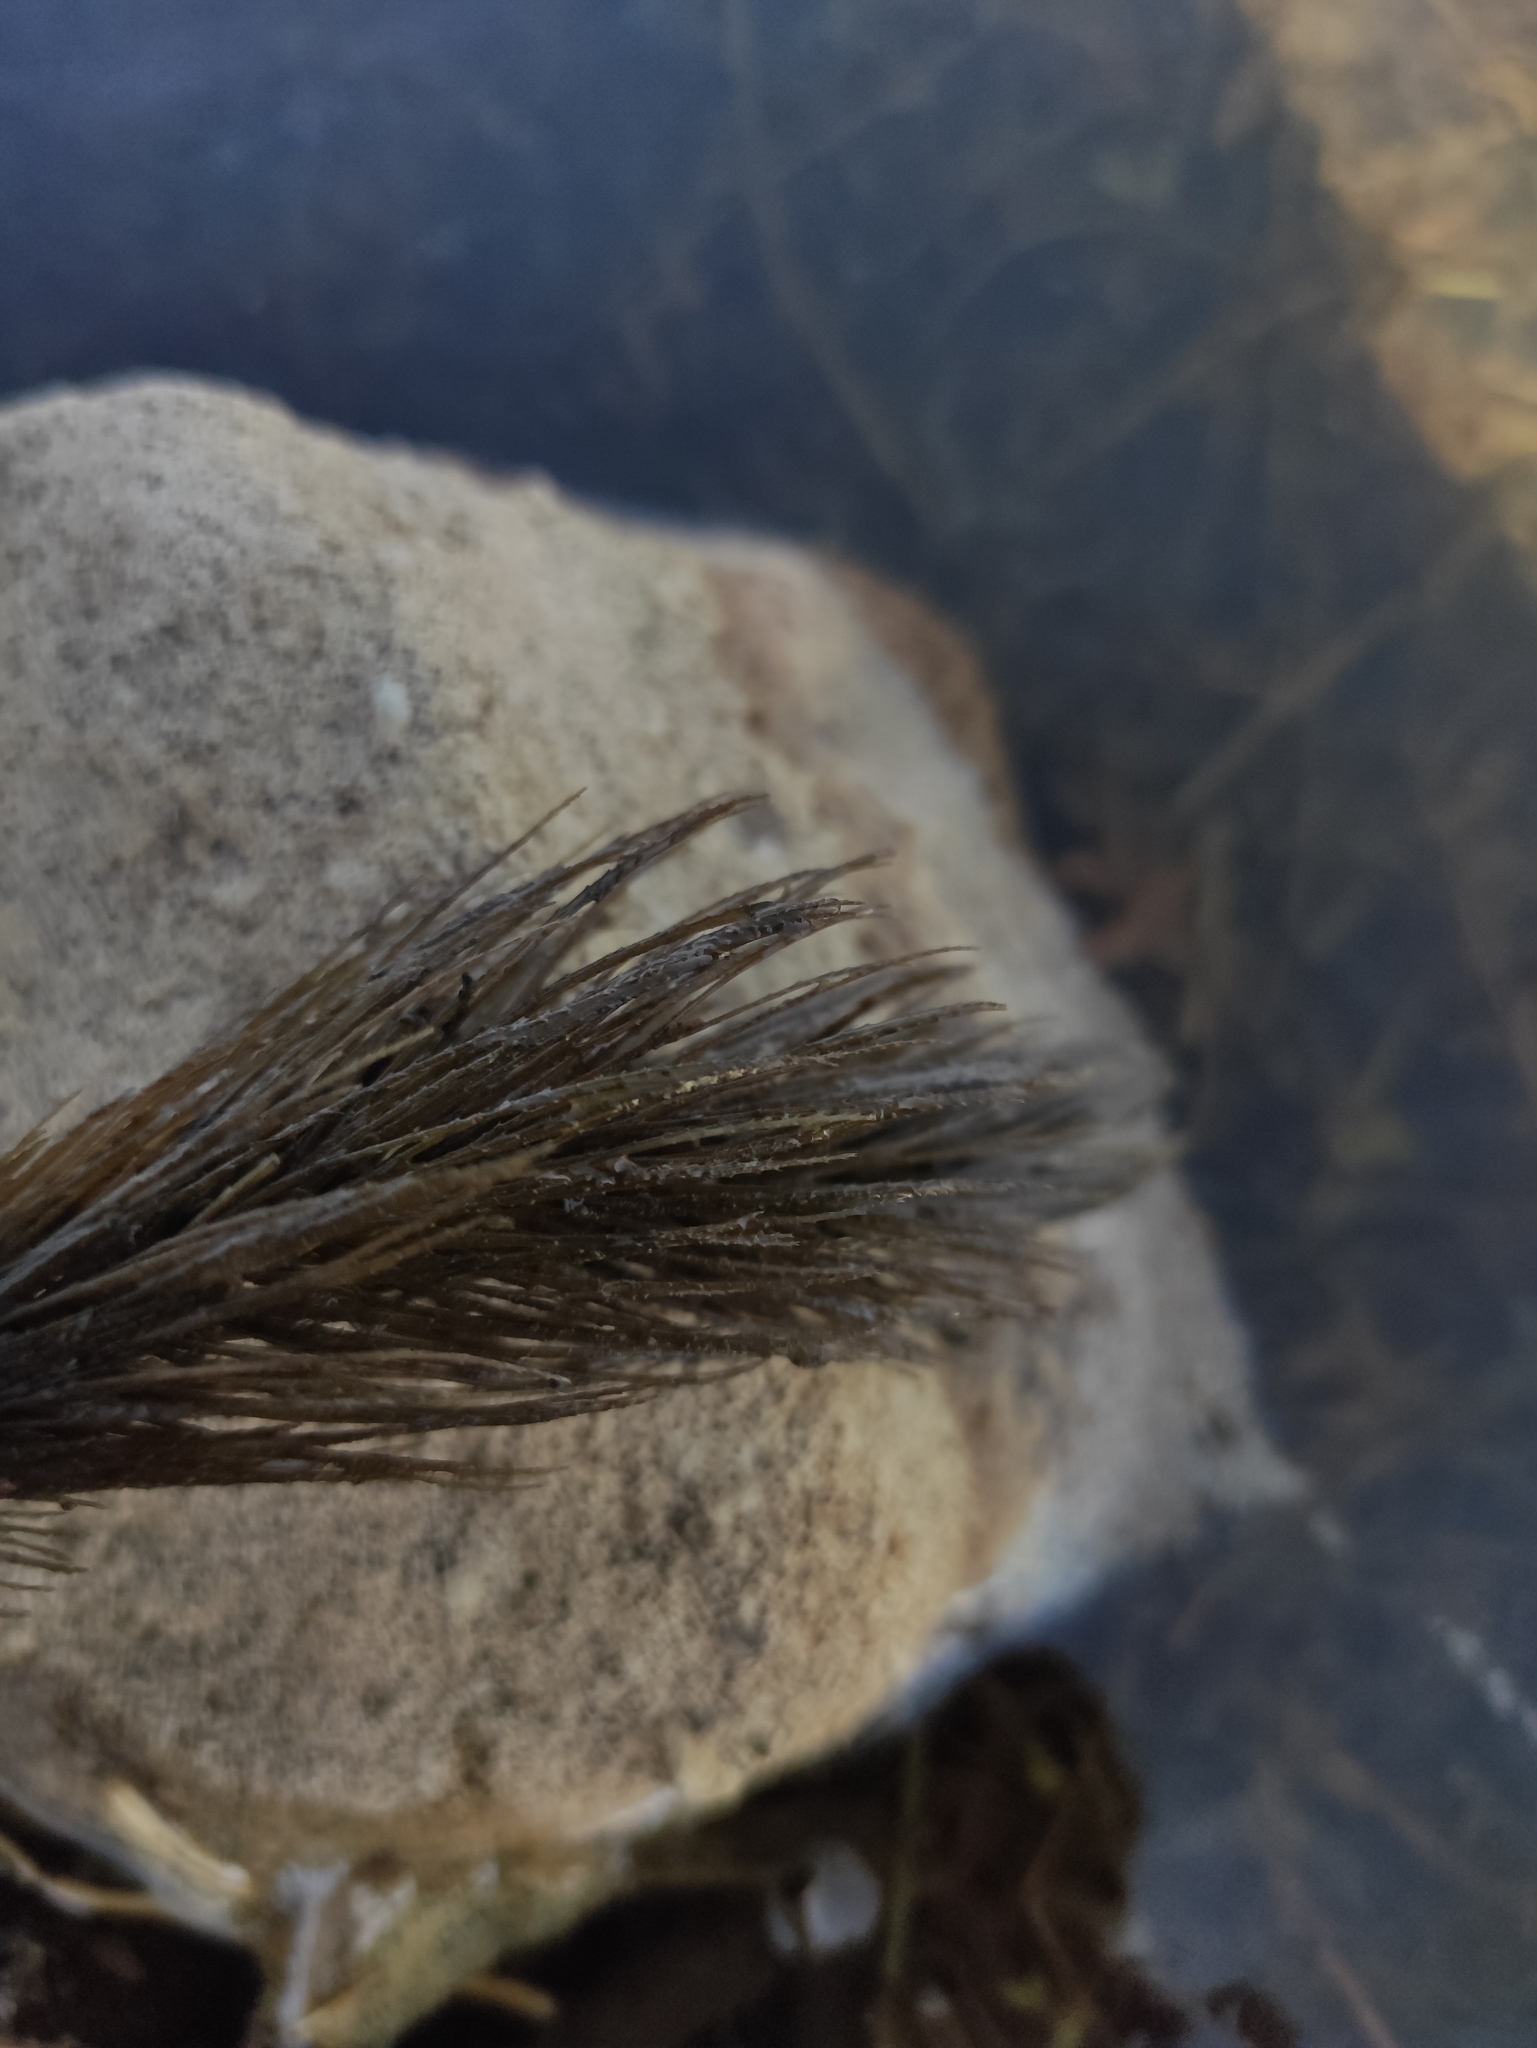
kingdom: Plantae
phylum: Tracheophyta
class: Magnoliopsida
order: Ceratophyllales
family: Ceratophyllaceae
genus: Ceratophyllum
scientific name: Ceratophyllum demersum
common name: Rigid hornwort
